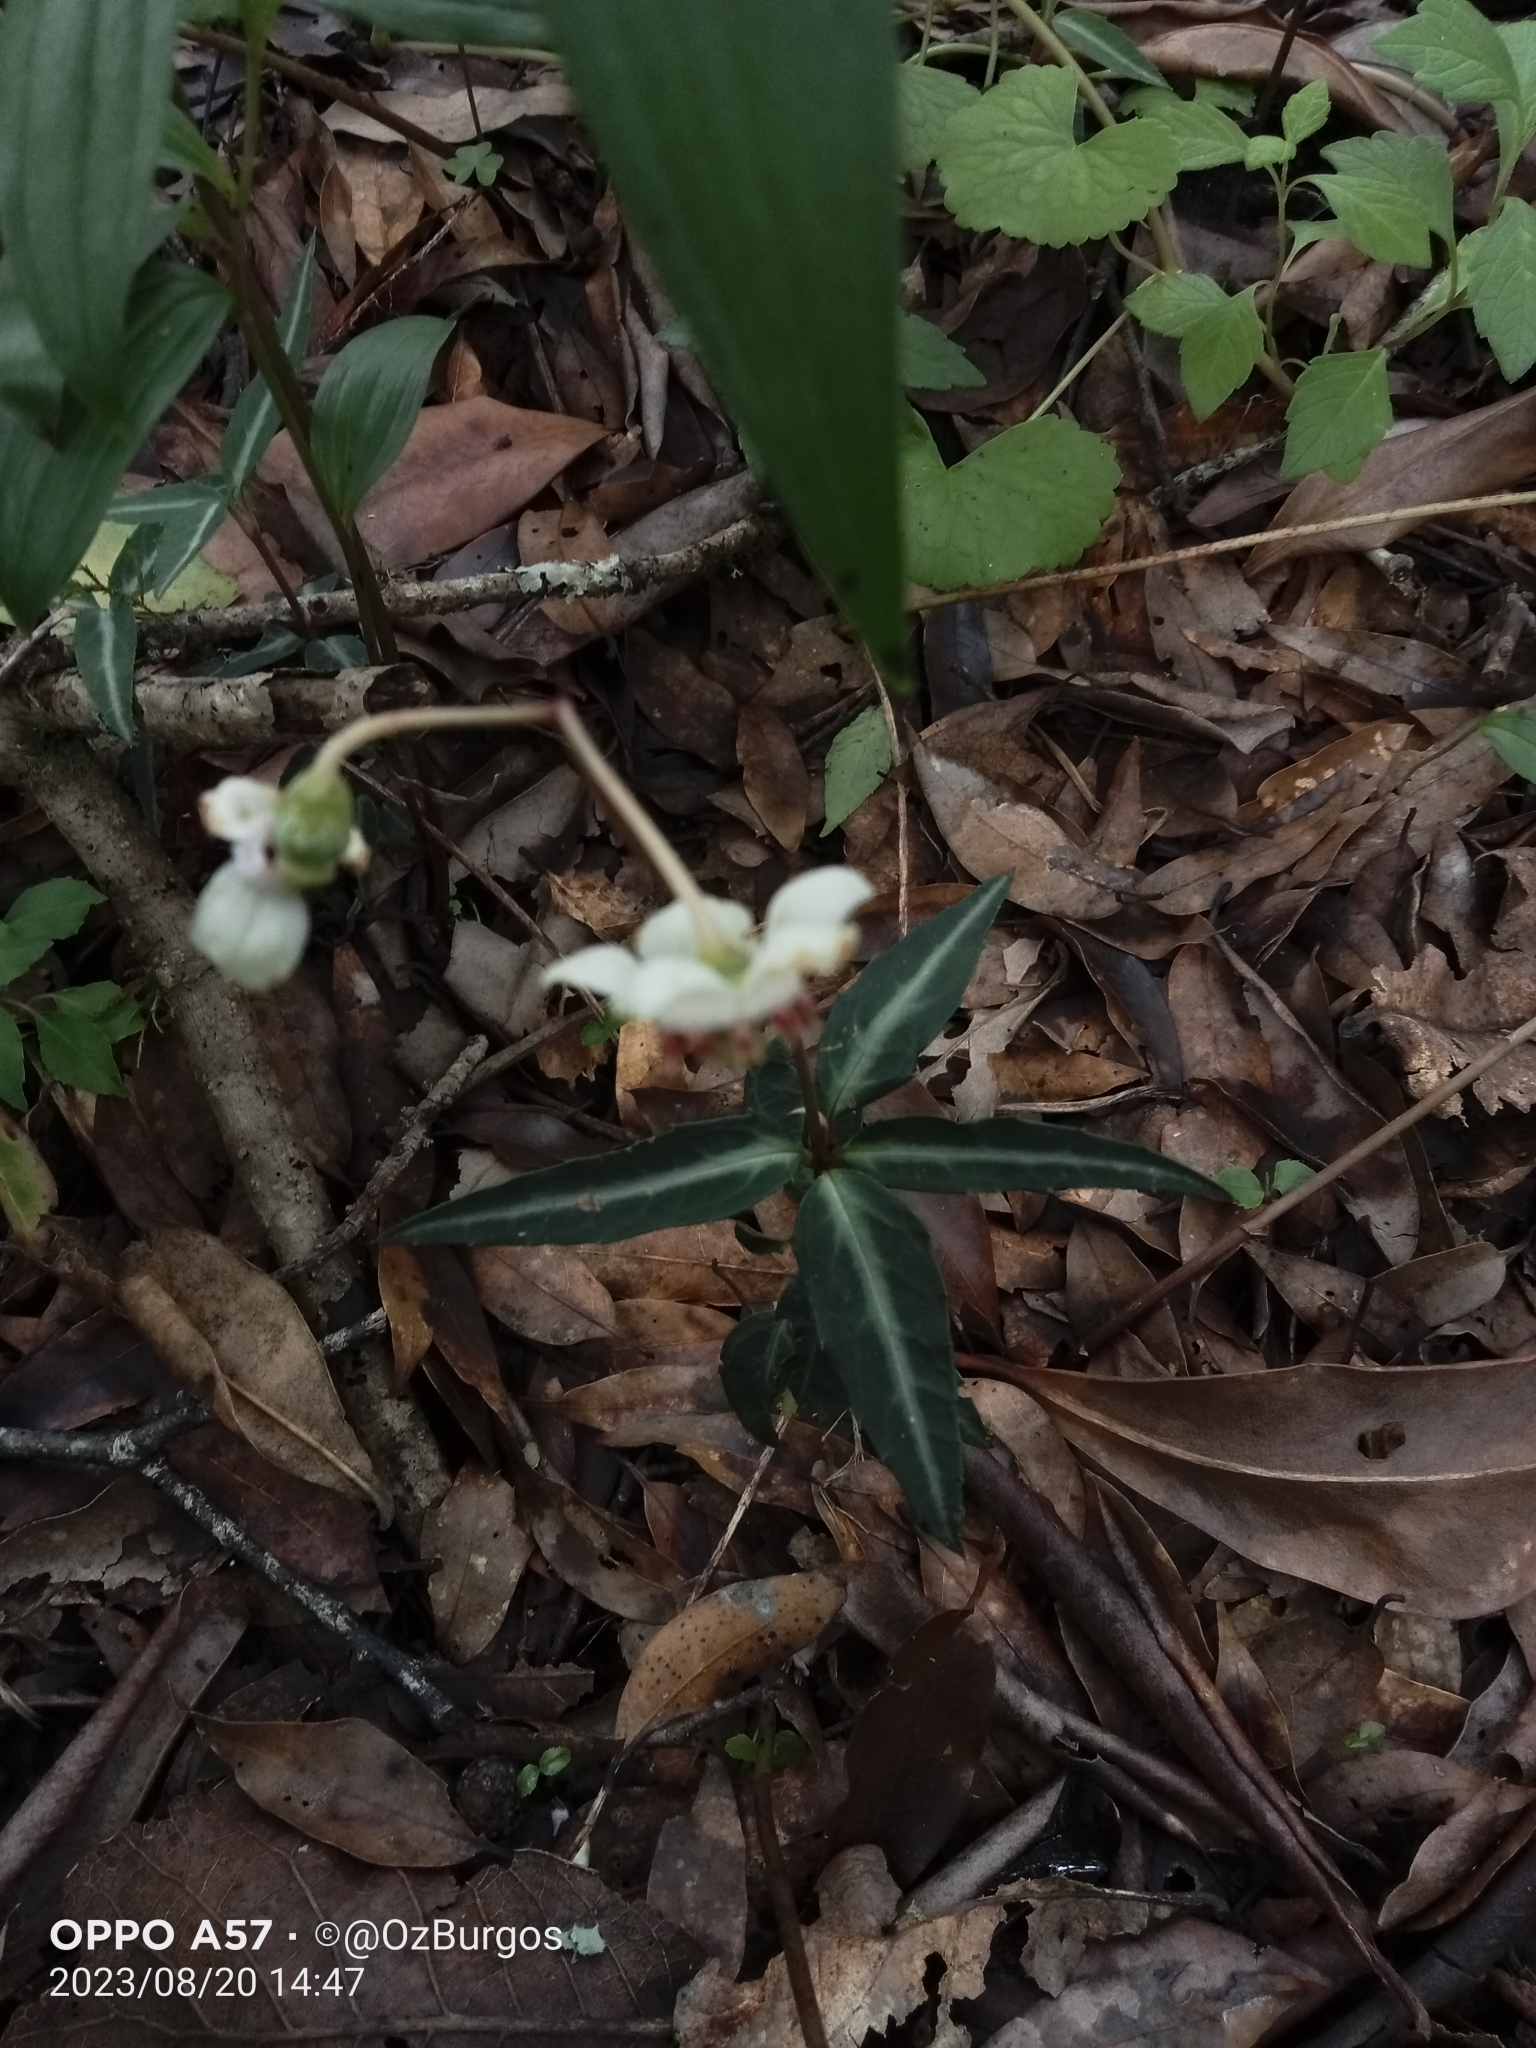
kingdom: Plantae
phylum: Tracheophyta
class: Magnoliopsida
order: Ericales
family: Ericaceae
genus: Chimaphila
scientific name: Chimaphila maculata
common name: Spotted pipsissewa
